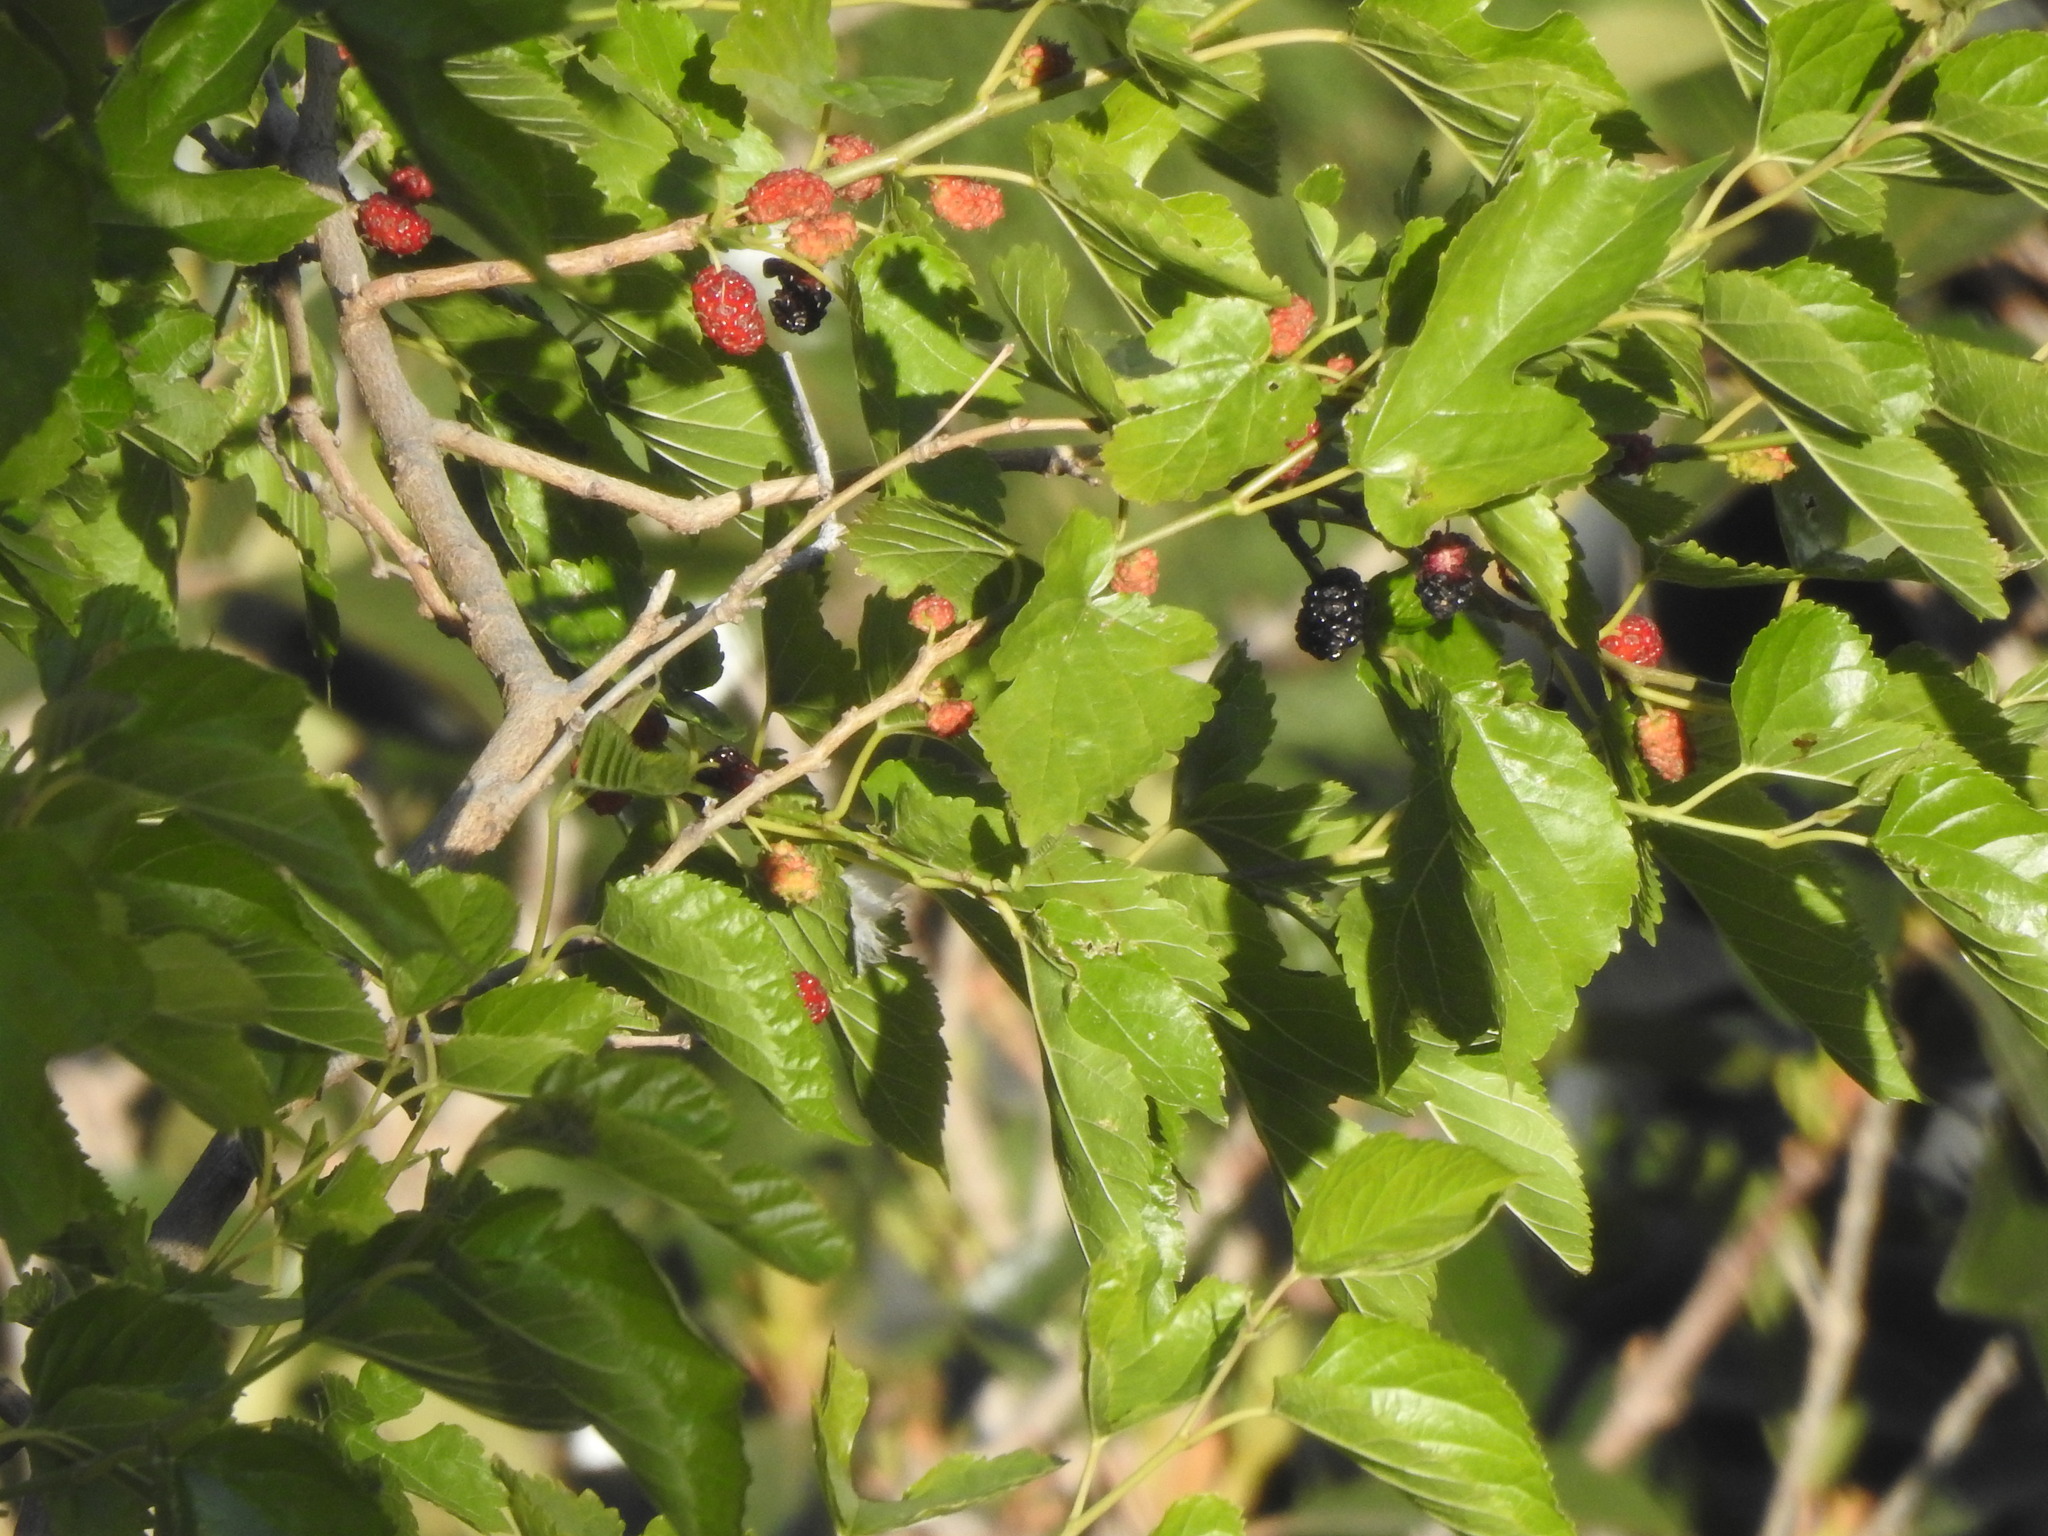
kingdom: Plantae
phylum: Tracheophyta
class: Magnoliopsida
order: Rosales
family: Moraceae
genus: Morus
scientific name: Morus nigra
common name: Black mulberry
